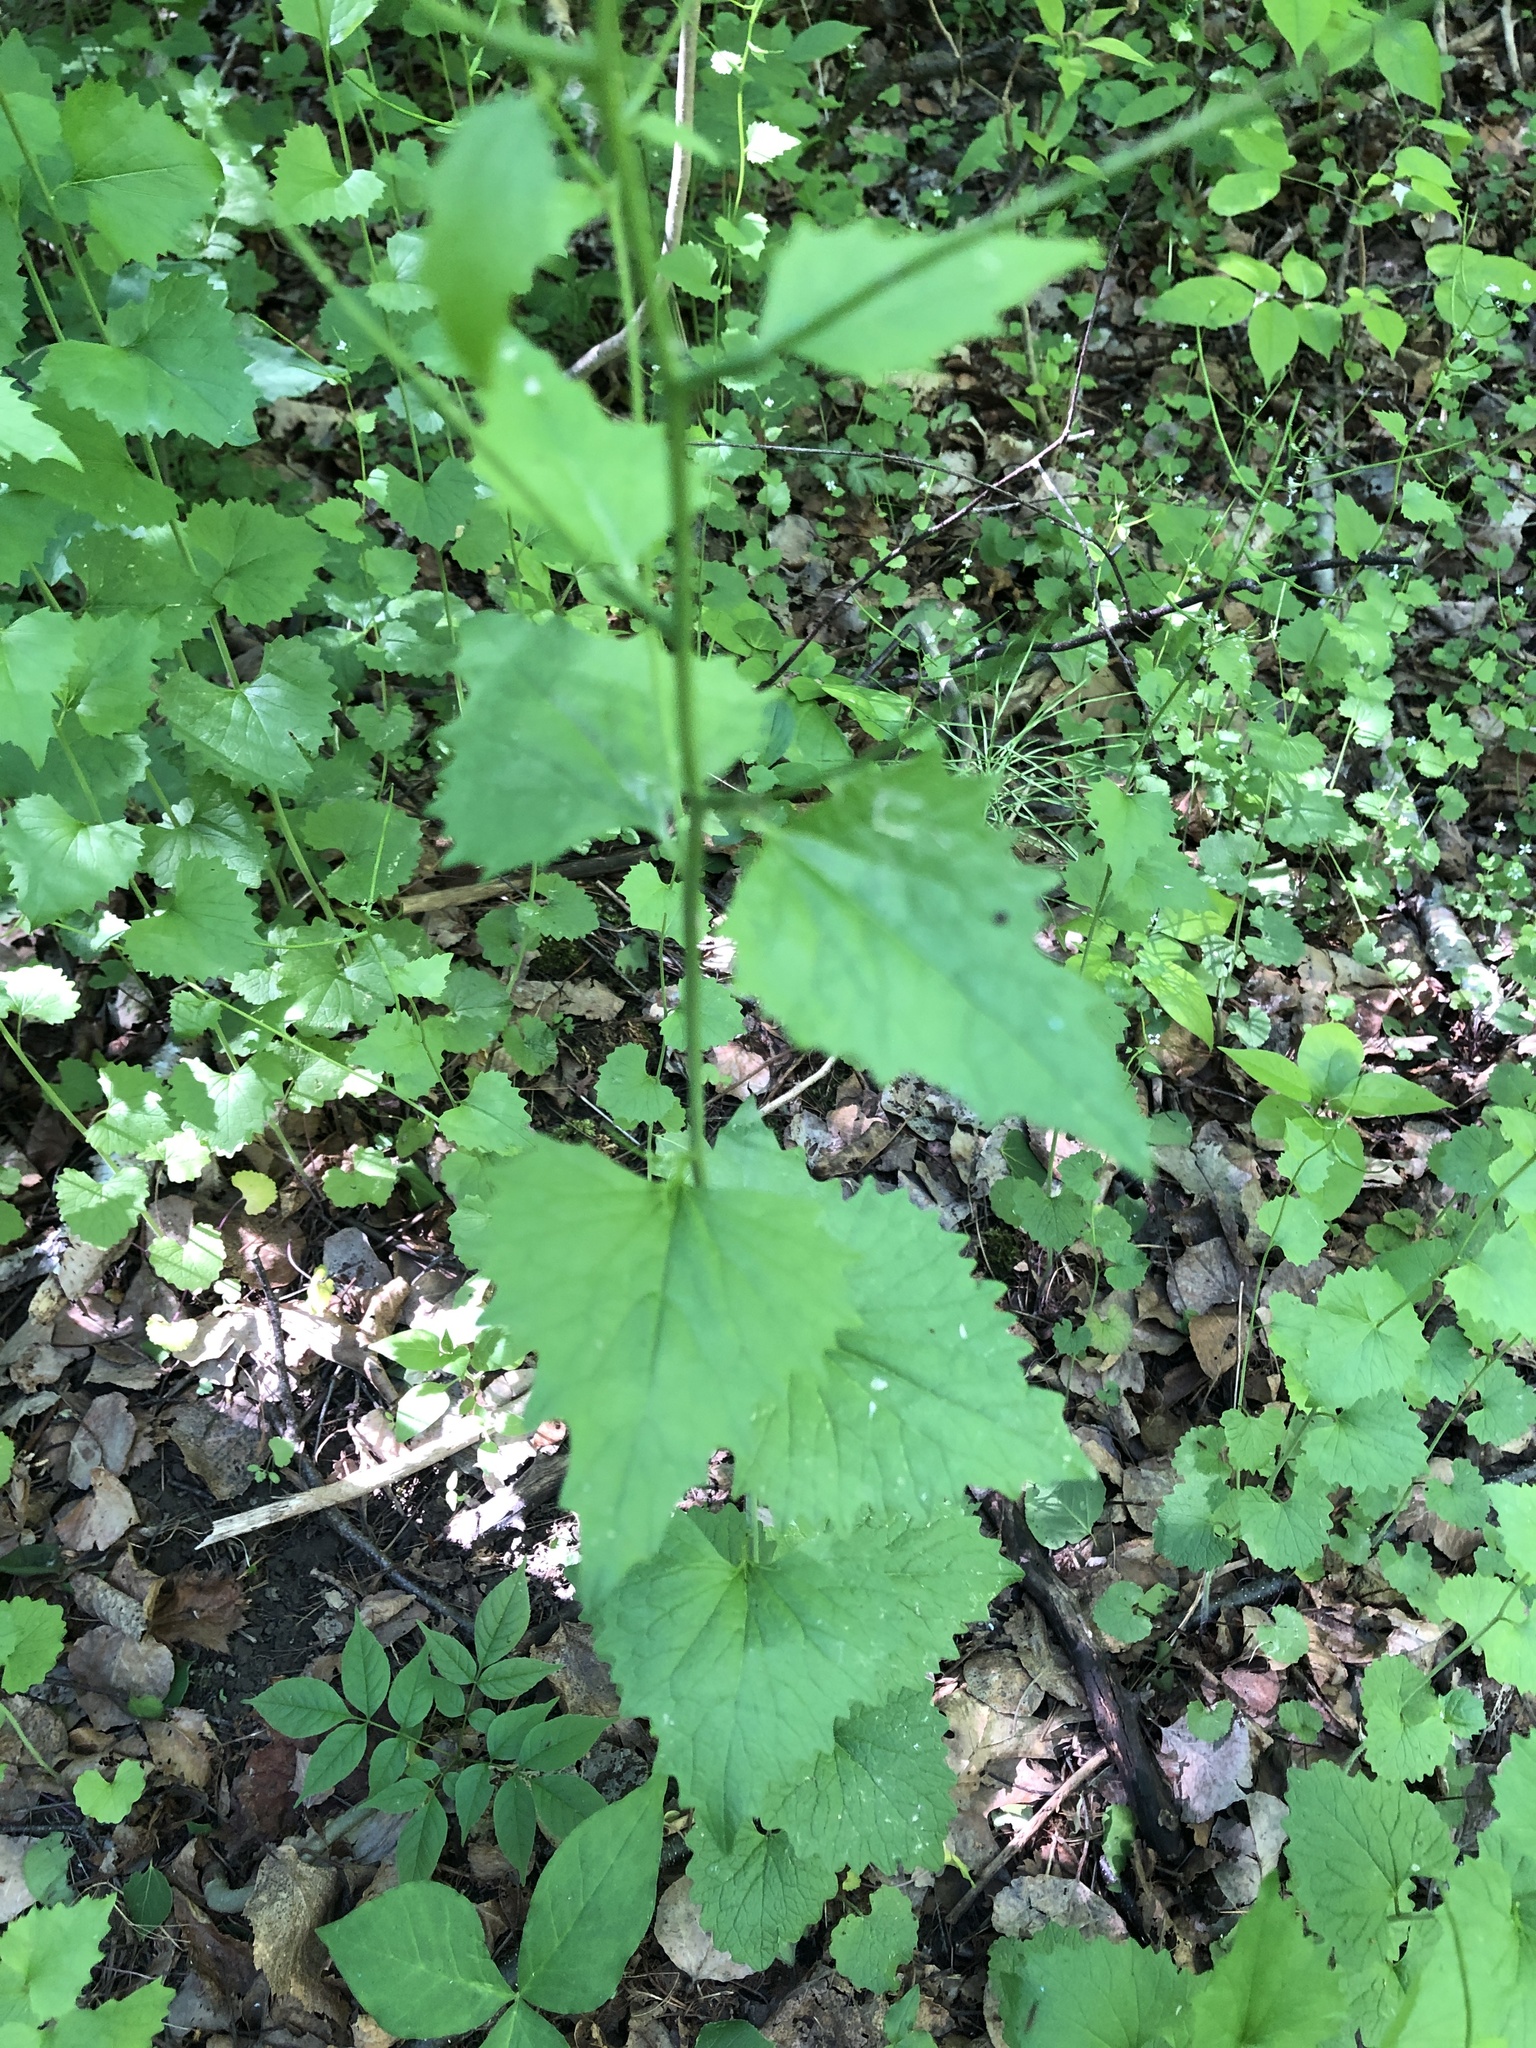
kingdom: Plantae
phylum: Tracheophyta
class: Magnoliopsida
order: Brassicales
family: Brassicaceae
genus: Alliaria
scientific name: Alliaria petiolata
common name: Garlic mustard
